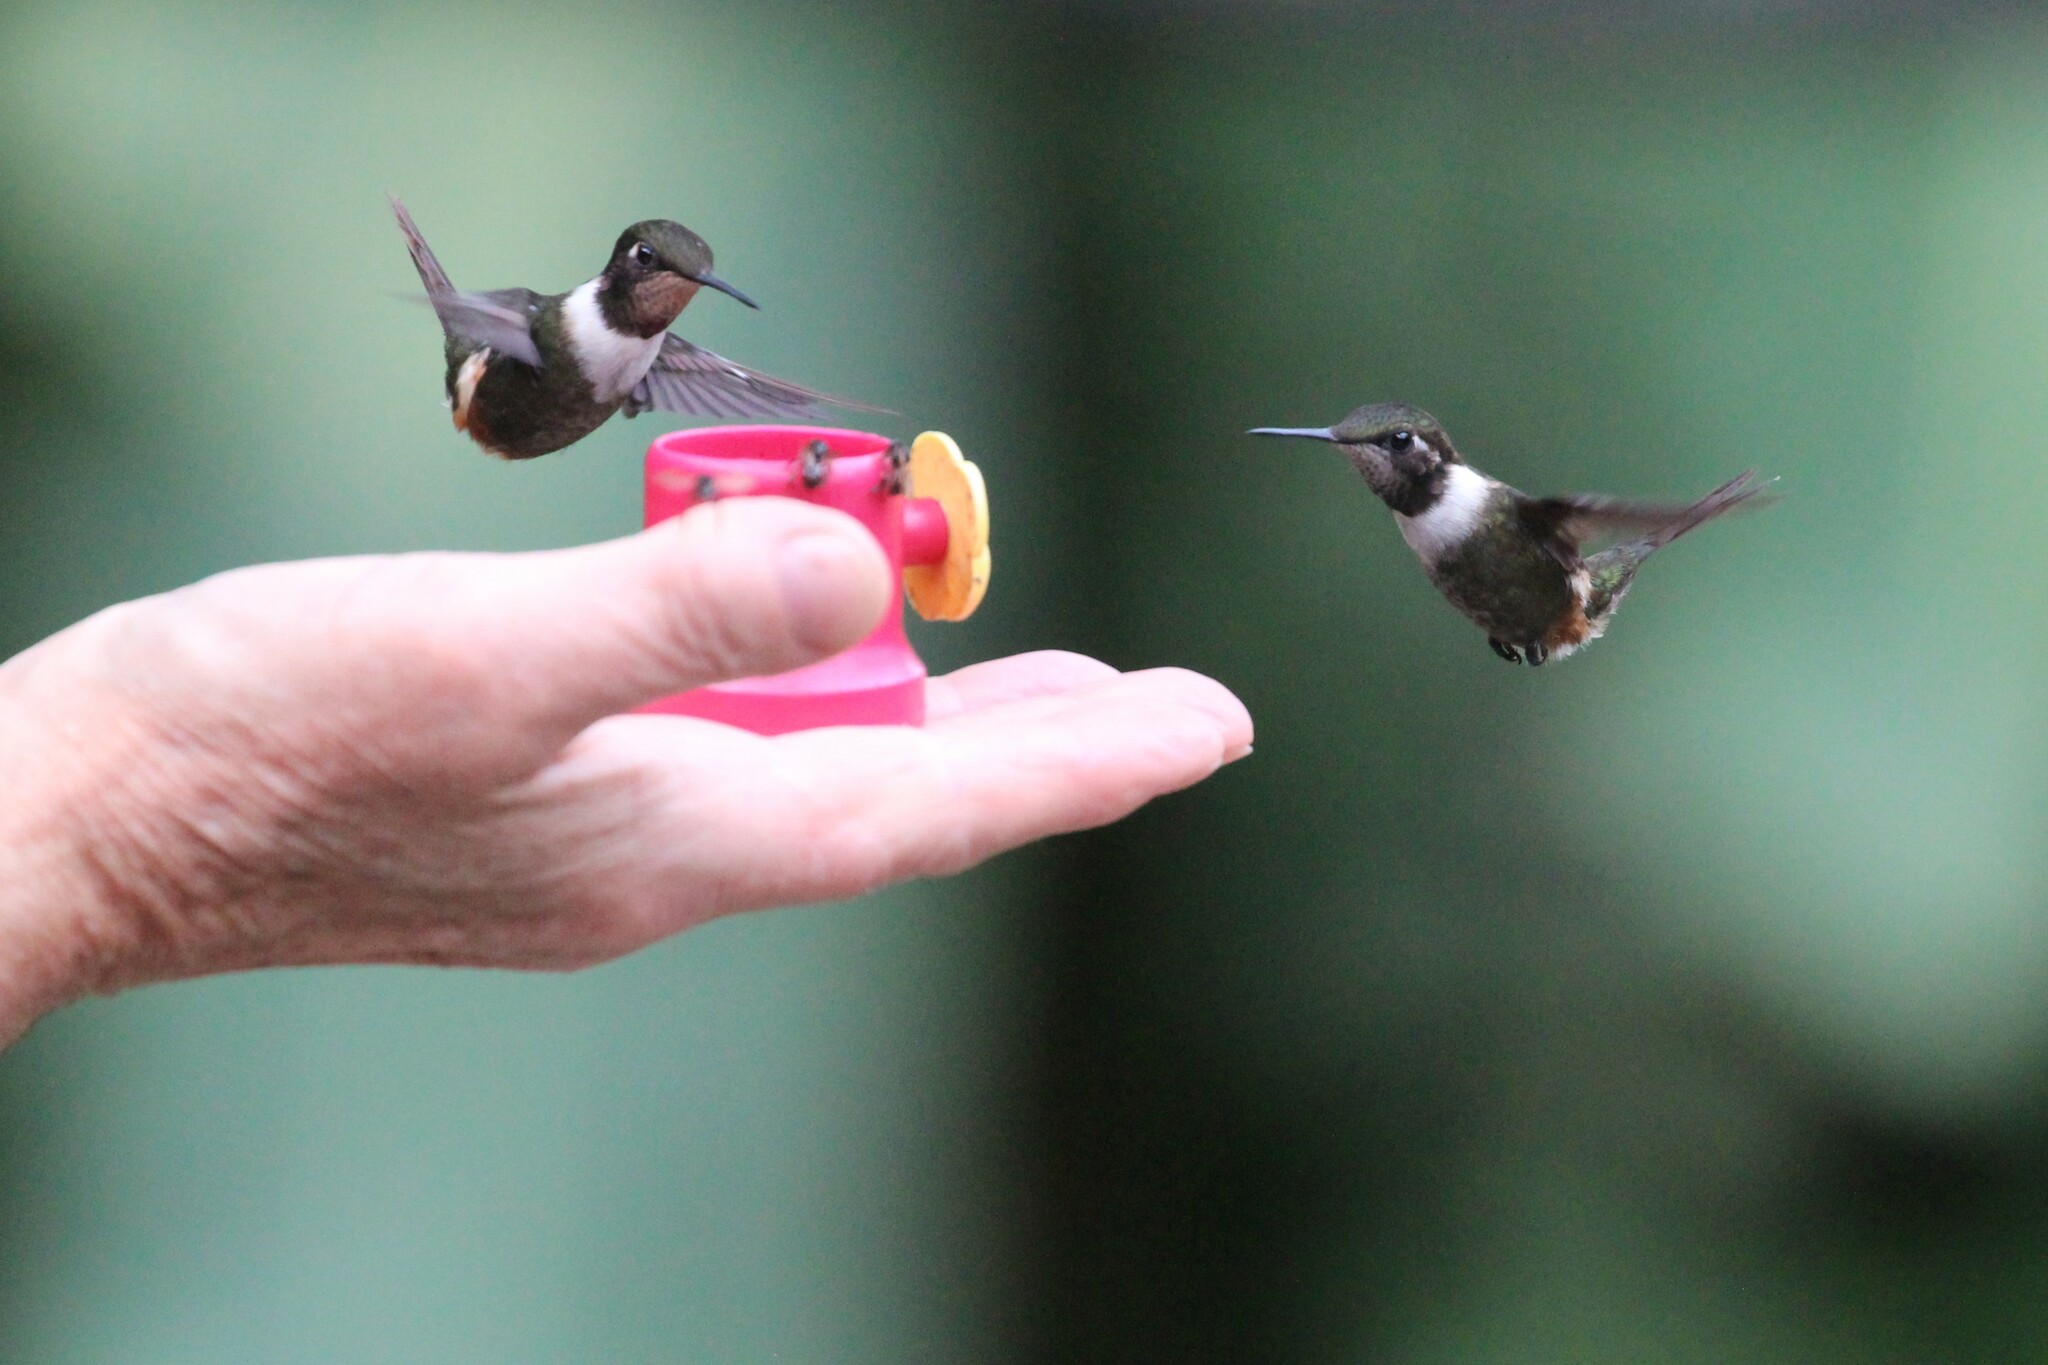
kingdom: Animalia
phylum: Chordata
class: Aves
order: Apodiformes
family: Trochilidae
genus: Calliphlox
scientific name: Calliphlox mitchellii
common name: Purple-throated woodstar
